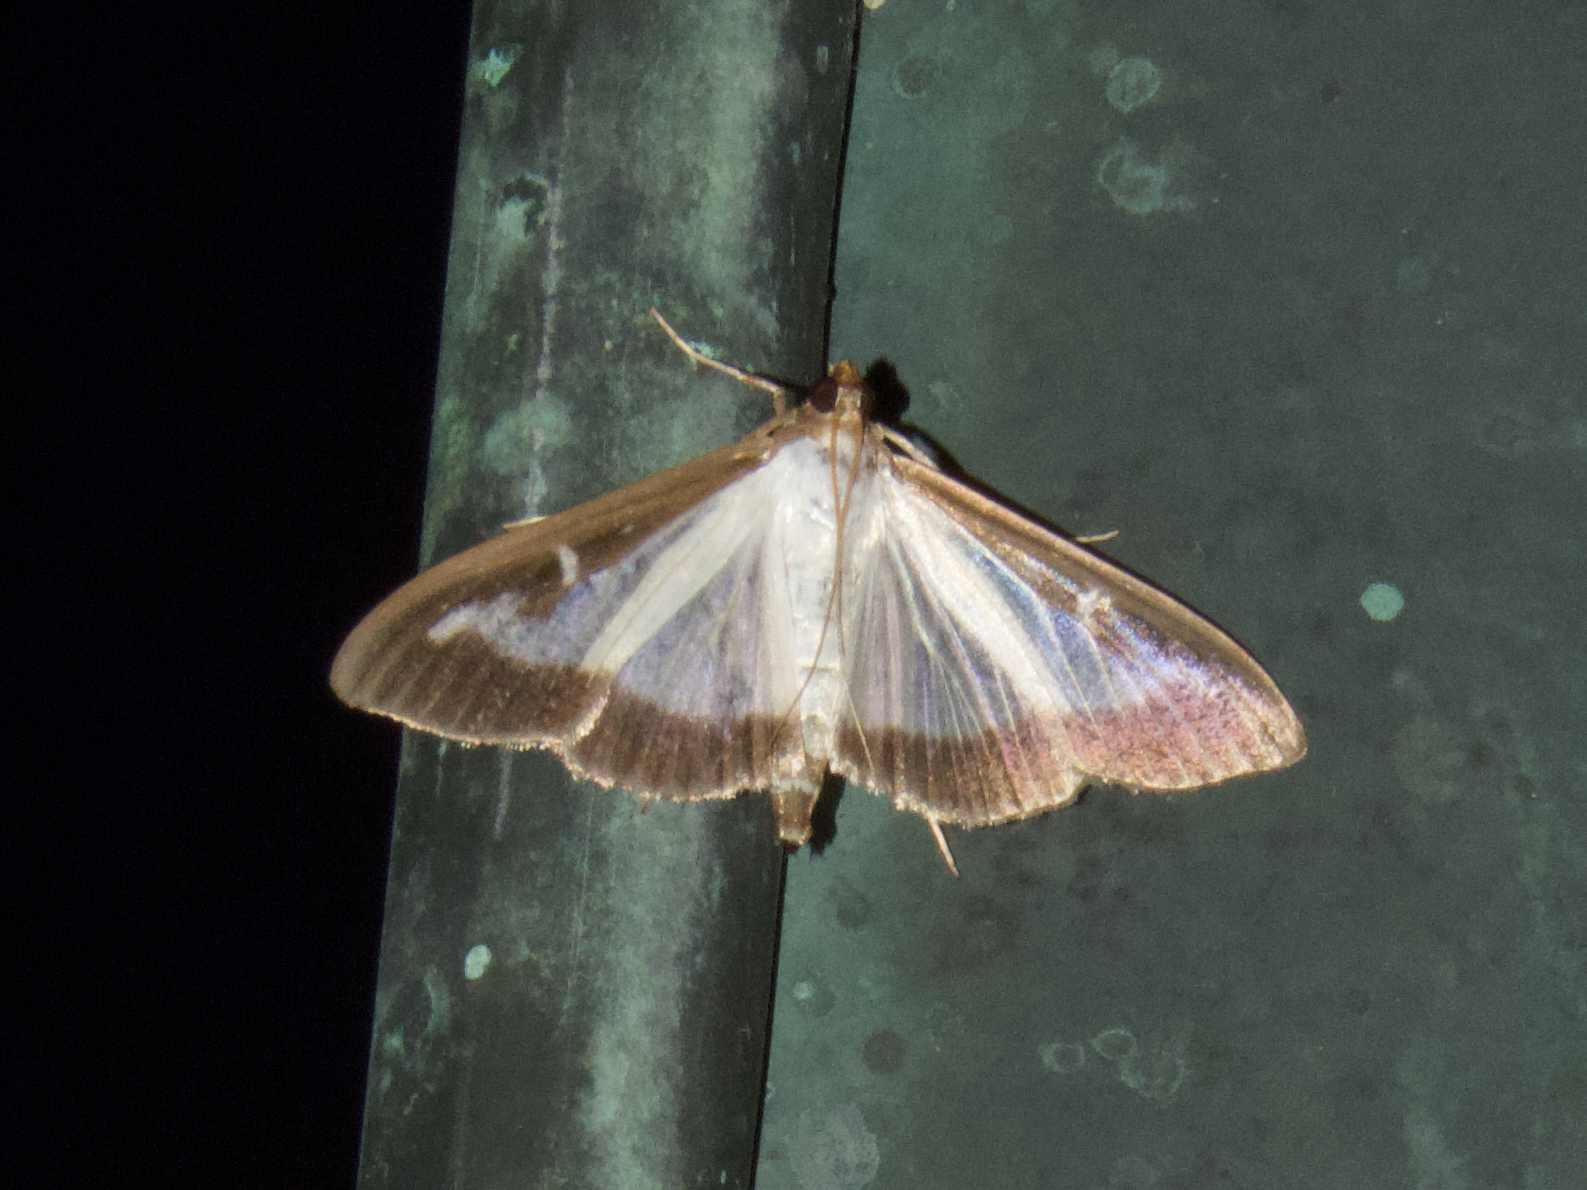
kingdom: Animalia
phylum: Arthropoda
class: Insecta
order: Lepidoptera
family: Crambidae
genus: Cydalima
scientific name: Cydalima perspectalis
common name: Box tree moth
